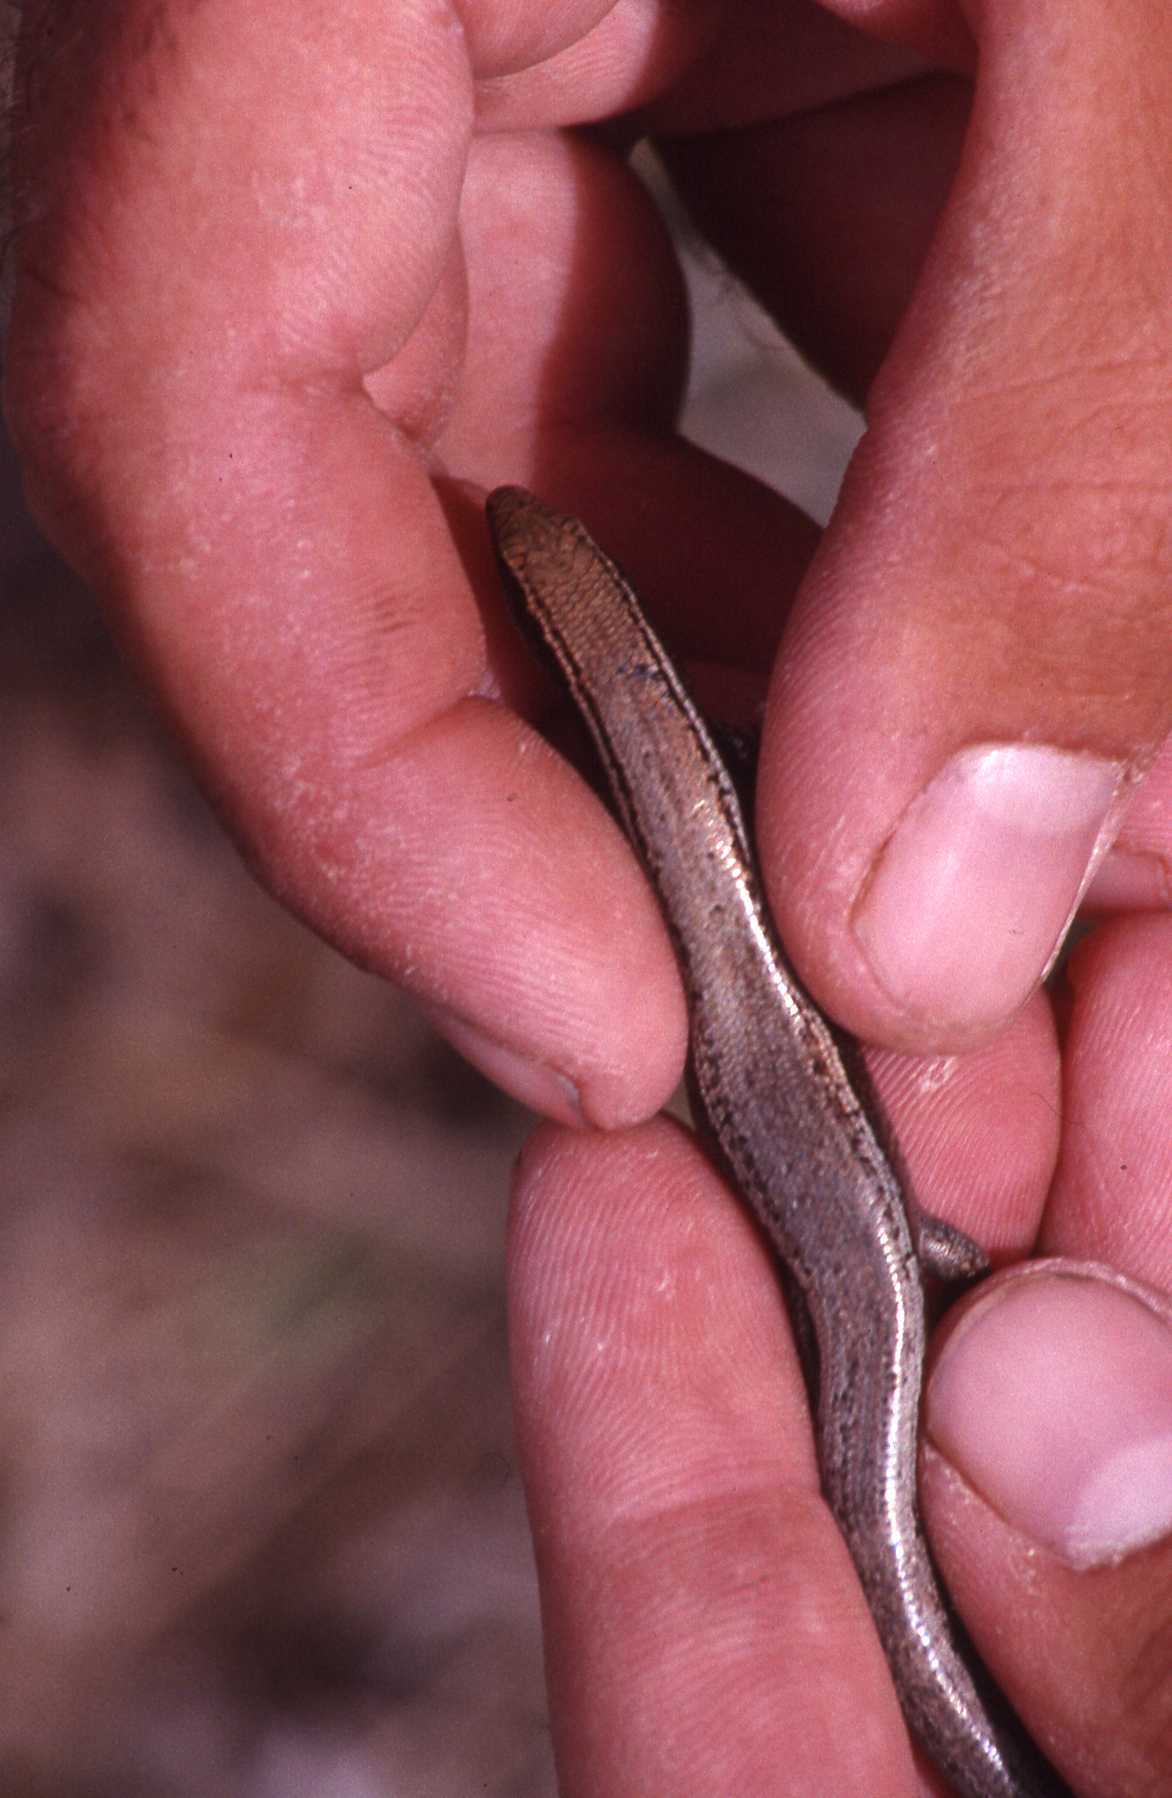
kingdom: Animalia
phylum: Chordata
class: Squamata
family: Scincidae
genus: Gongylomorphus
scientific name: Gongylomorphus bojerii
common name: Bojer's skink
